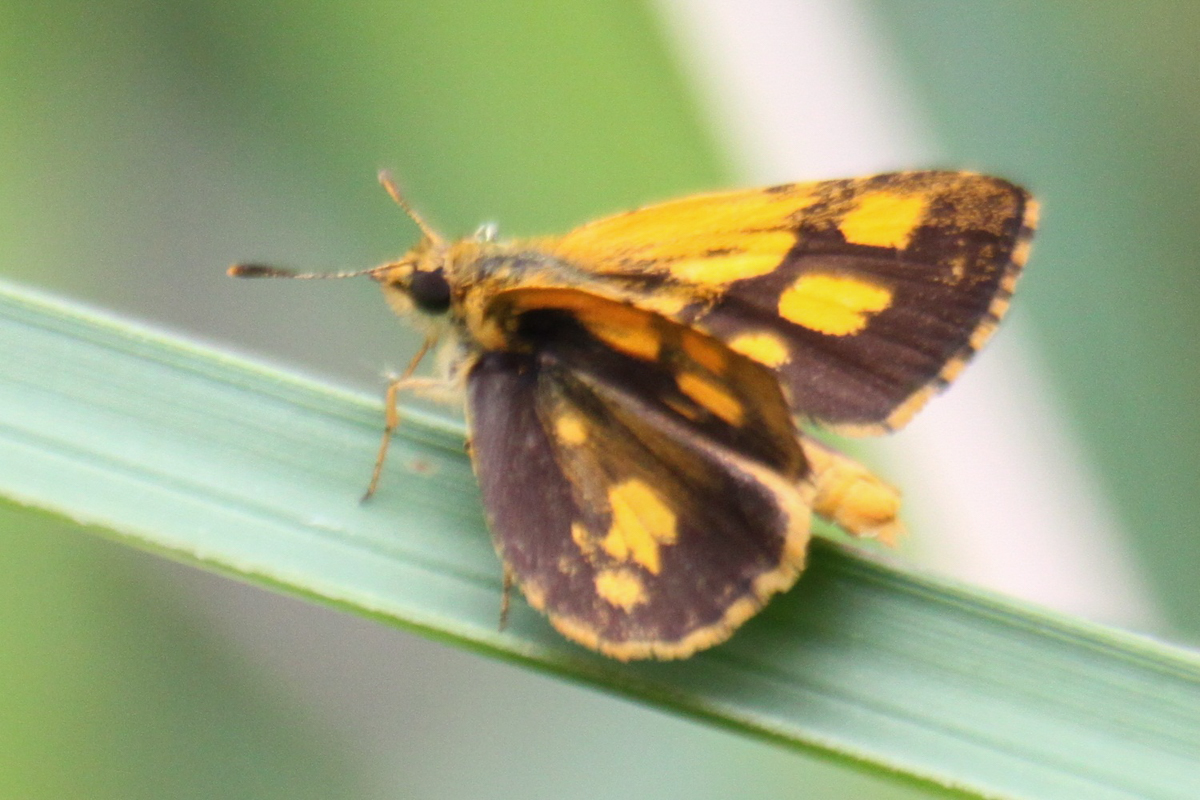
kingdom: Animalia
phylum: Arthropoda
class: Insecta
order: Lepidoptera
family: Hesperiidae
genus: Ampittia
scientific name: Ampittia dioscorides
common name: Common bush hopper
